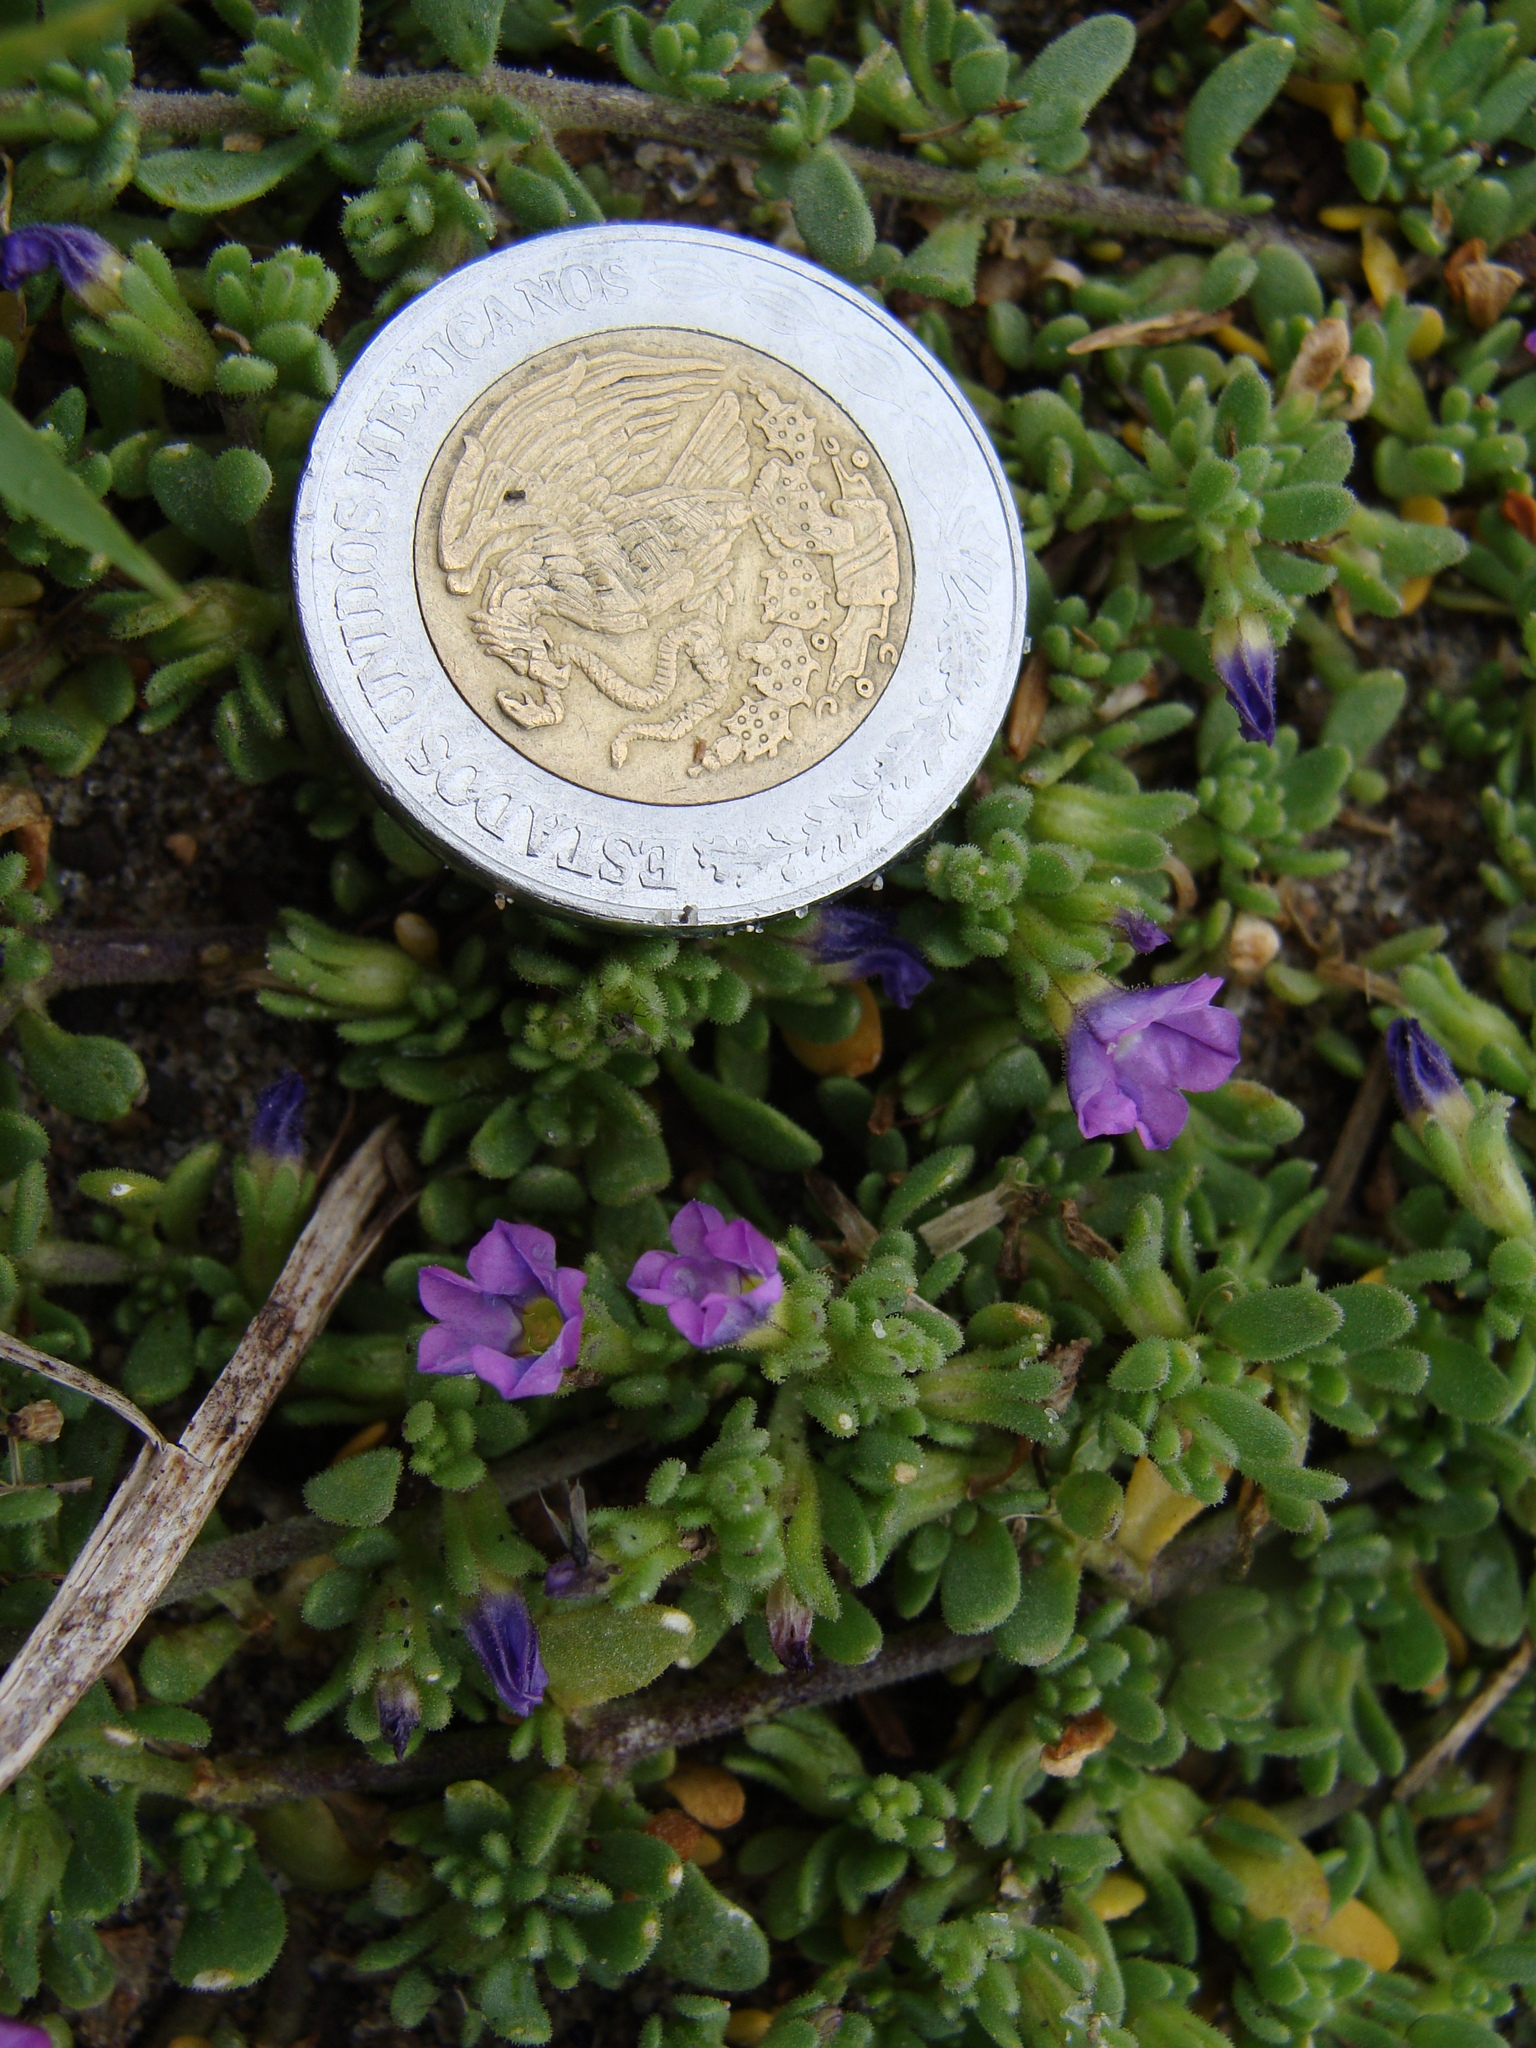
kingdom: Plantae
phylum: Tracheophyta
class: Magnoliopsida
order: Solanales
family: Solanaceae
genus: Calibrachoa
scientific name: Calibrachoa parviflora
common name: Seaside petunia
